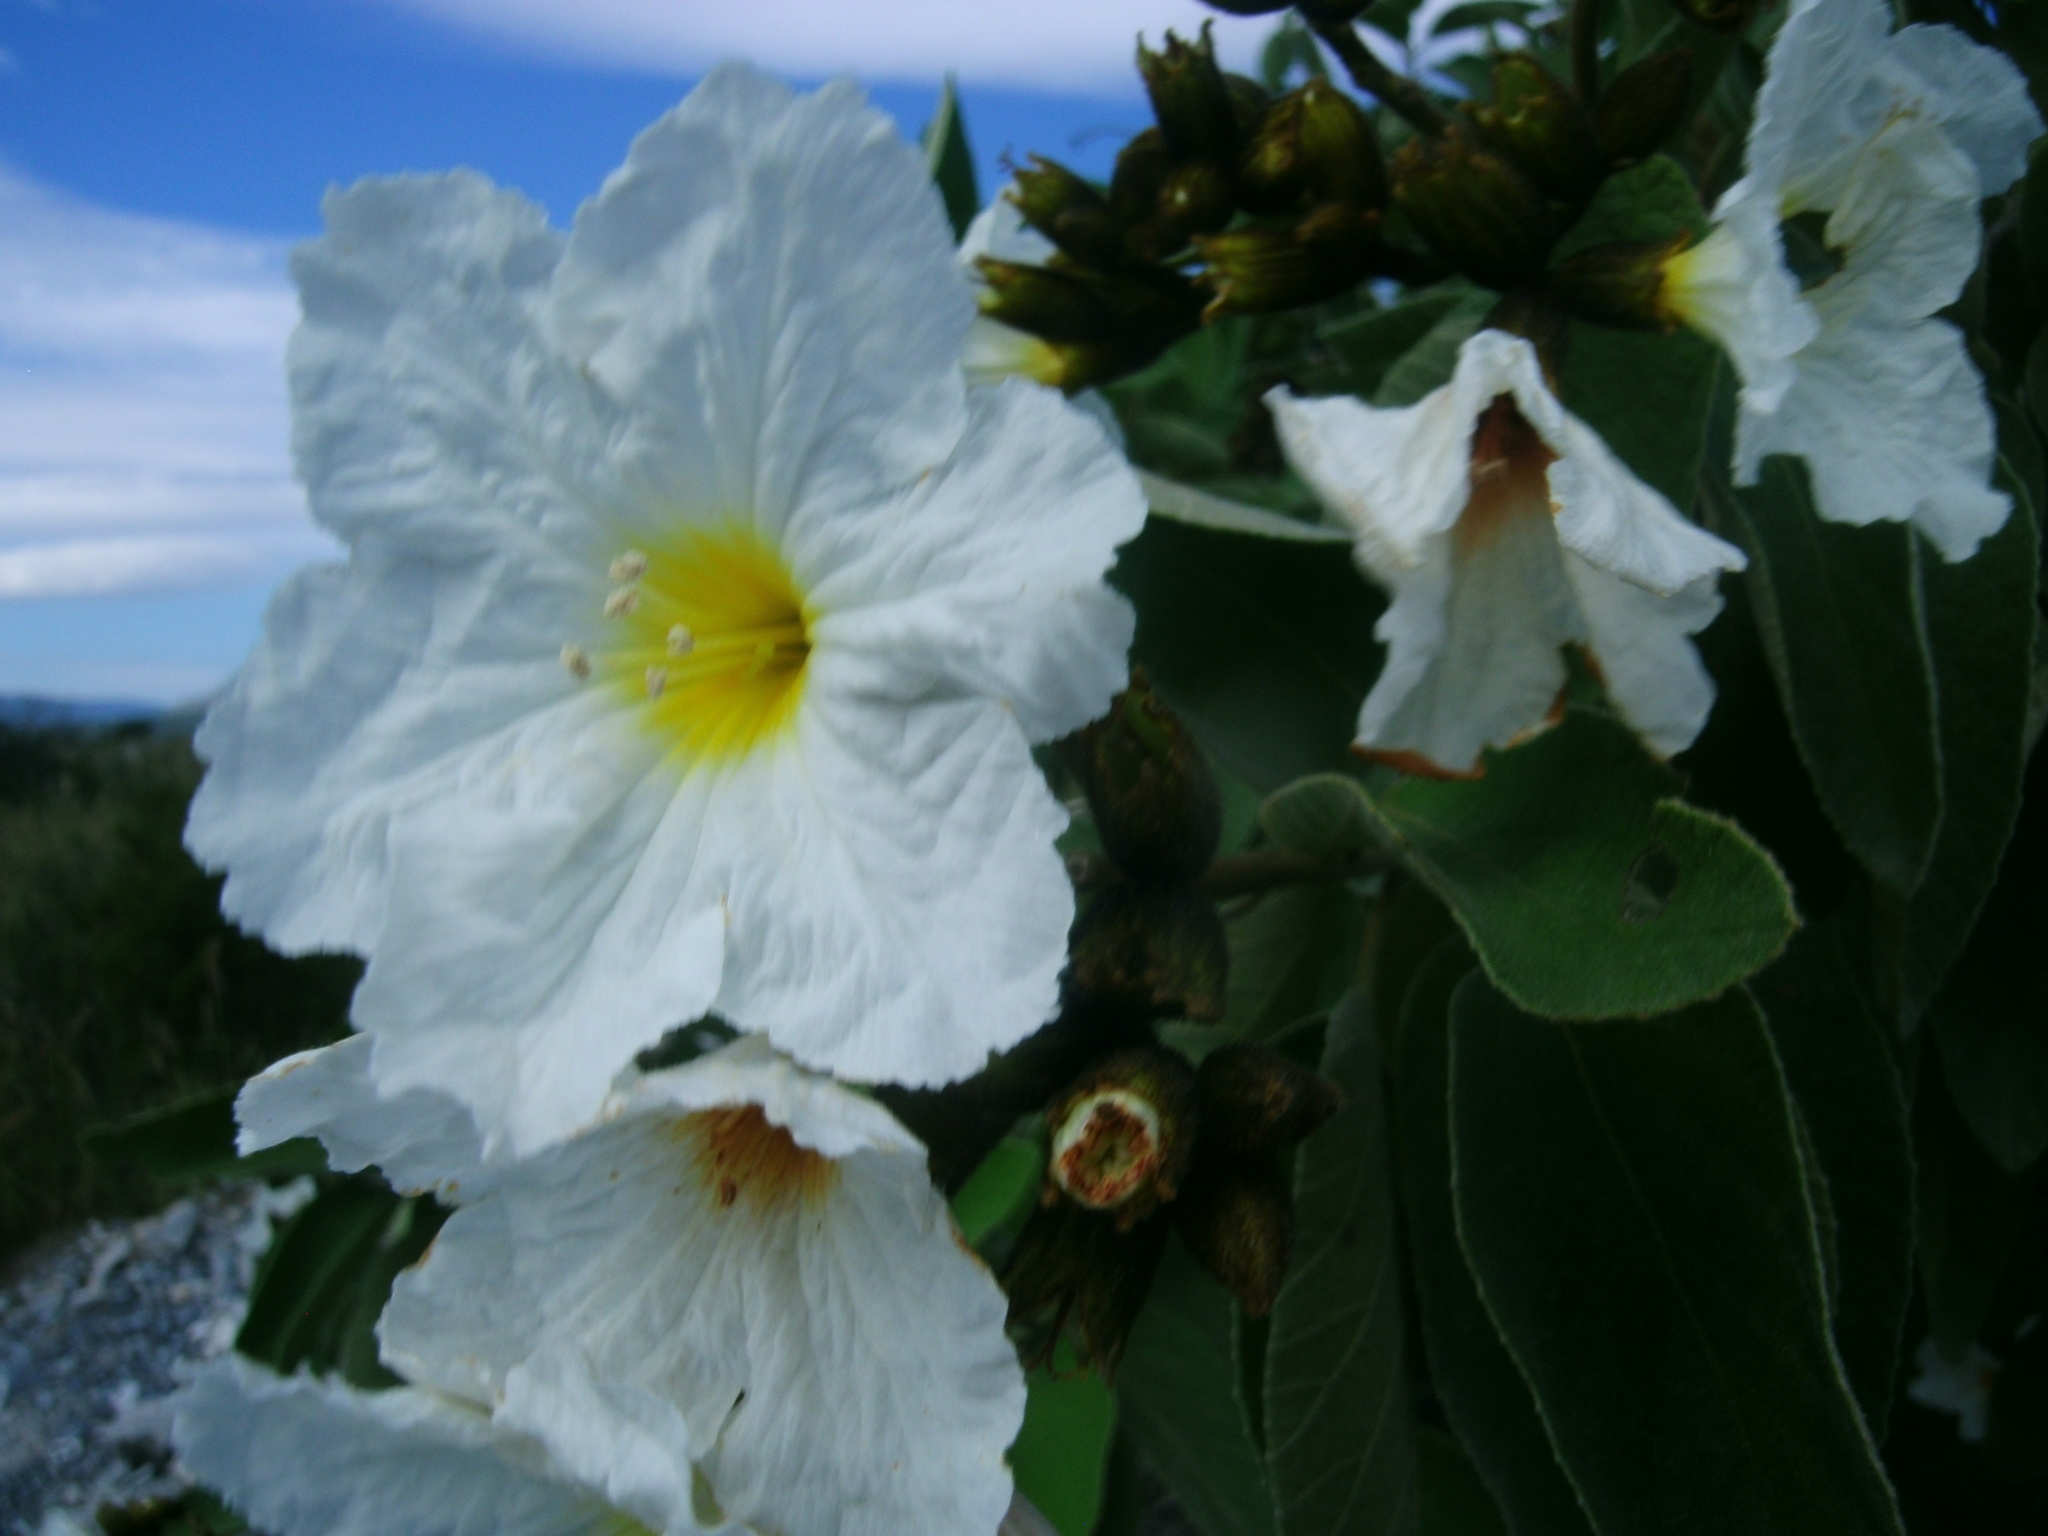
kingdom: Plantae
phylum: Tracheophyta
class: Magnoliopsida
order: Boraginales
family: Cordiaceae
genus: Cordia
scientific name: Cordia boissieri
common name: Mexican-olive
